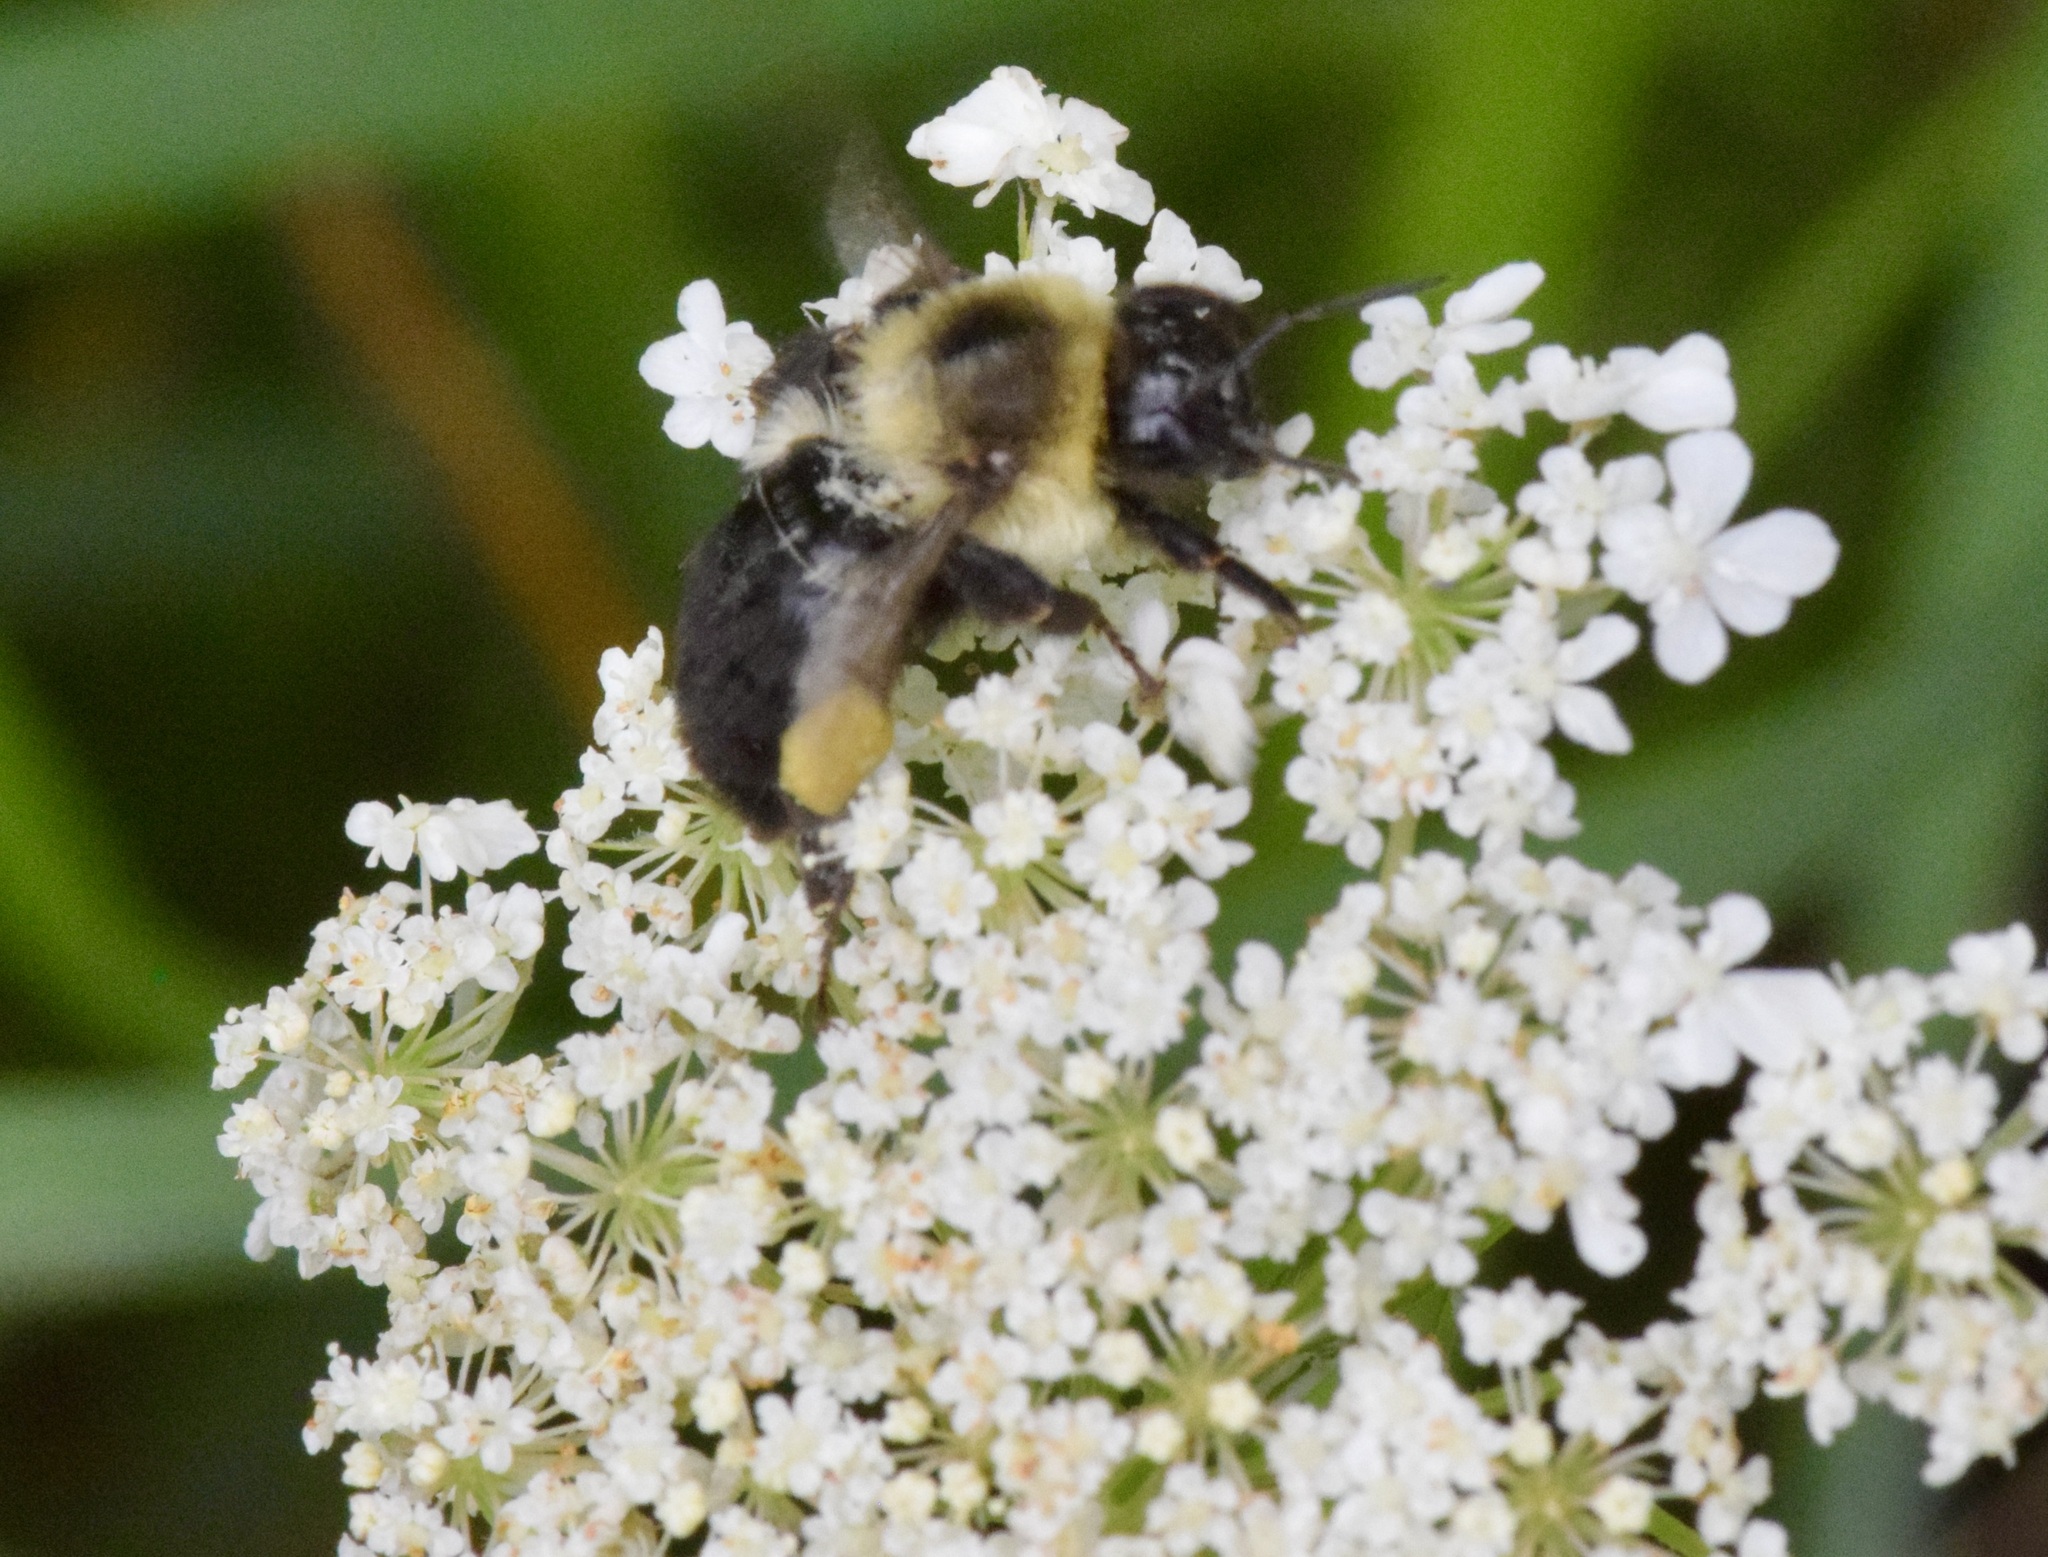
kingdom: Animalia
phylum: Arthropoda
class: Insecta
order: Hymenoptera
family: Apidae
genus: Bombus
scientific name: Bombus impatiens
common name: Common eastern bumble bee
